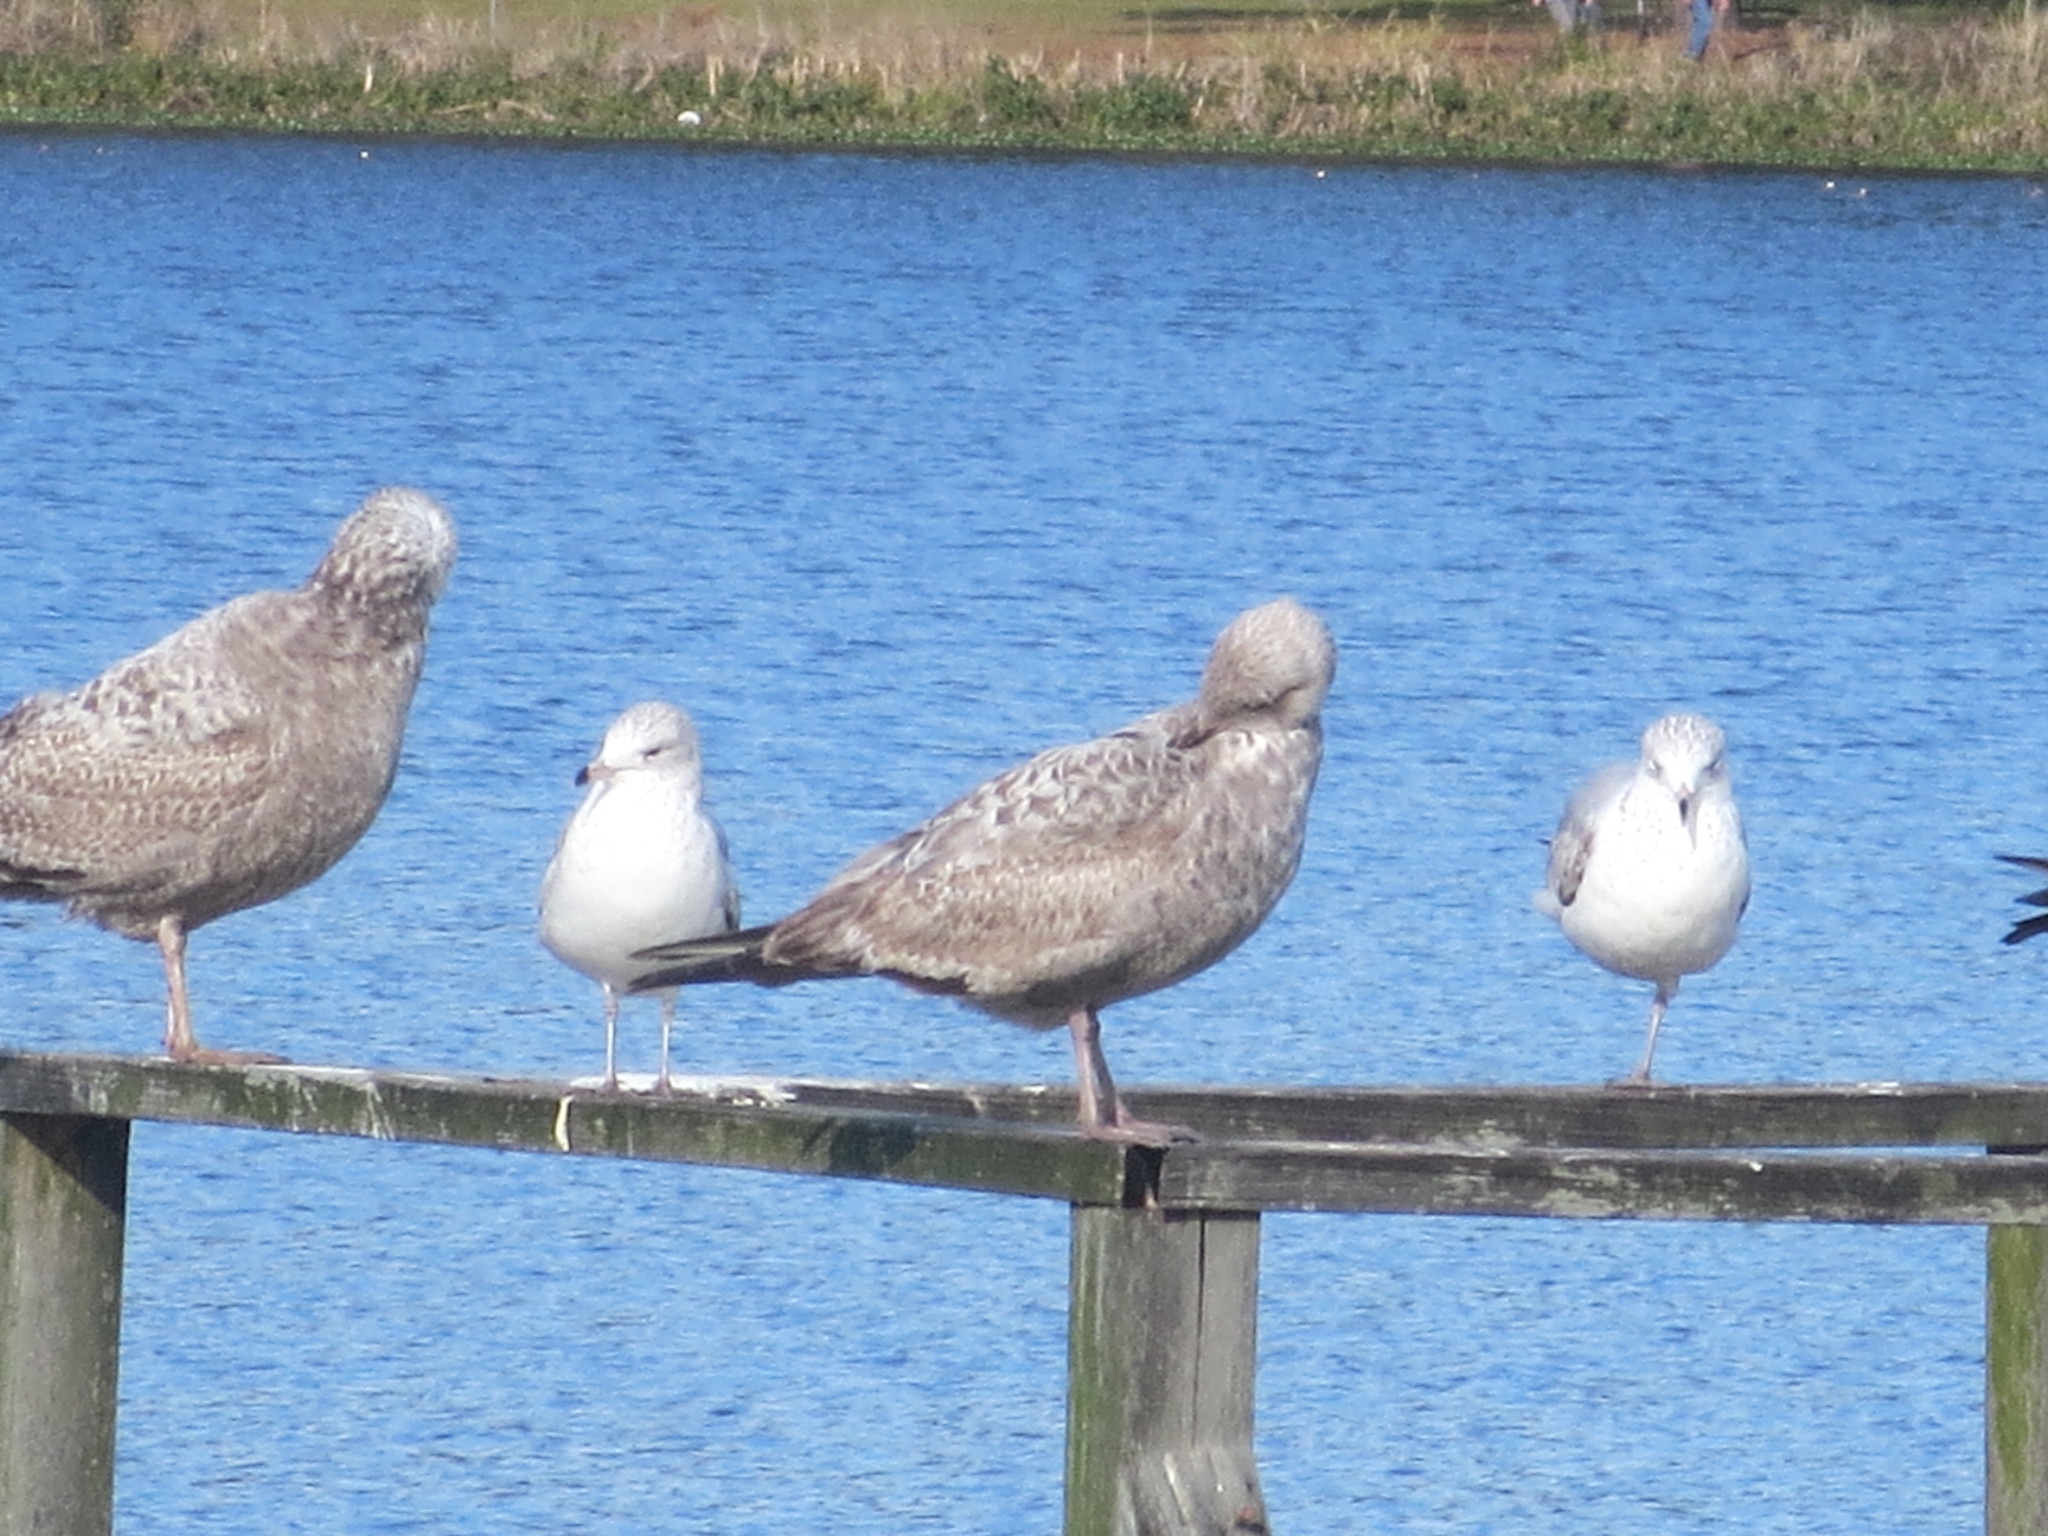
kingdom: Animalia
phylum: Chordata
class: Aves
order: Charadriiformes
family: Laridae
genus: Larus
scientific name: Larus argentatus
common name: Herring gull
